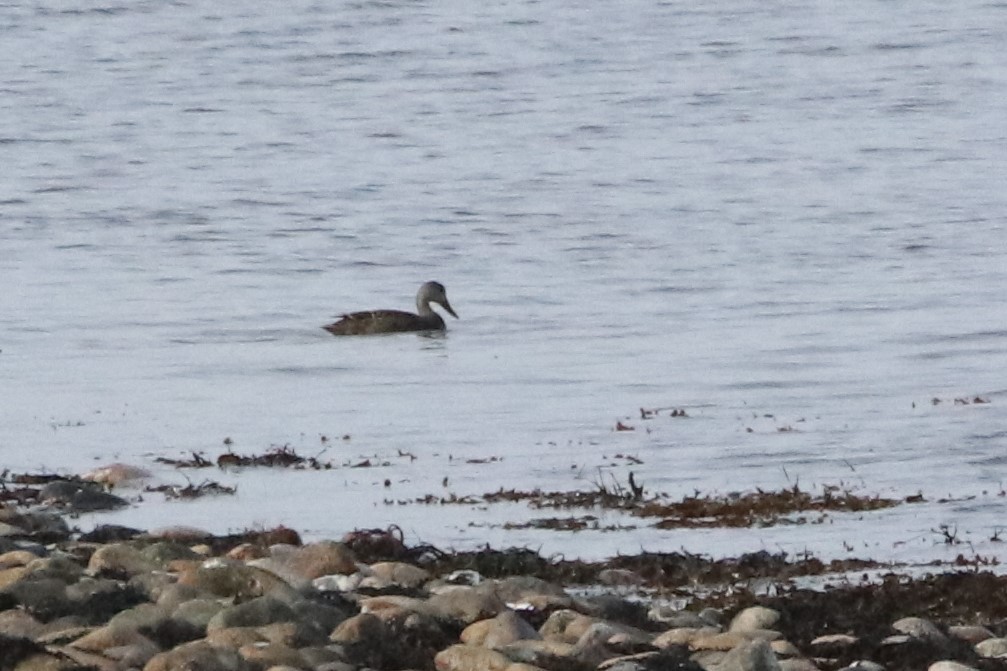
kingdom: Animalia
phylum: Chordata
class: Aves
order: Anseriformes
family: Anatidae
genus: Anas
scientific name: Anas rubripes
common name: American black duck
